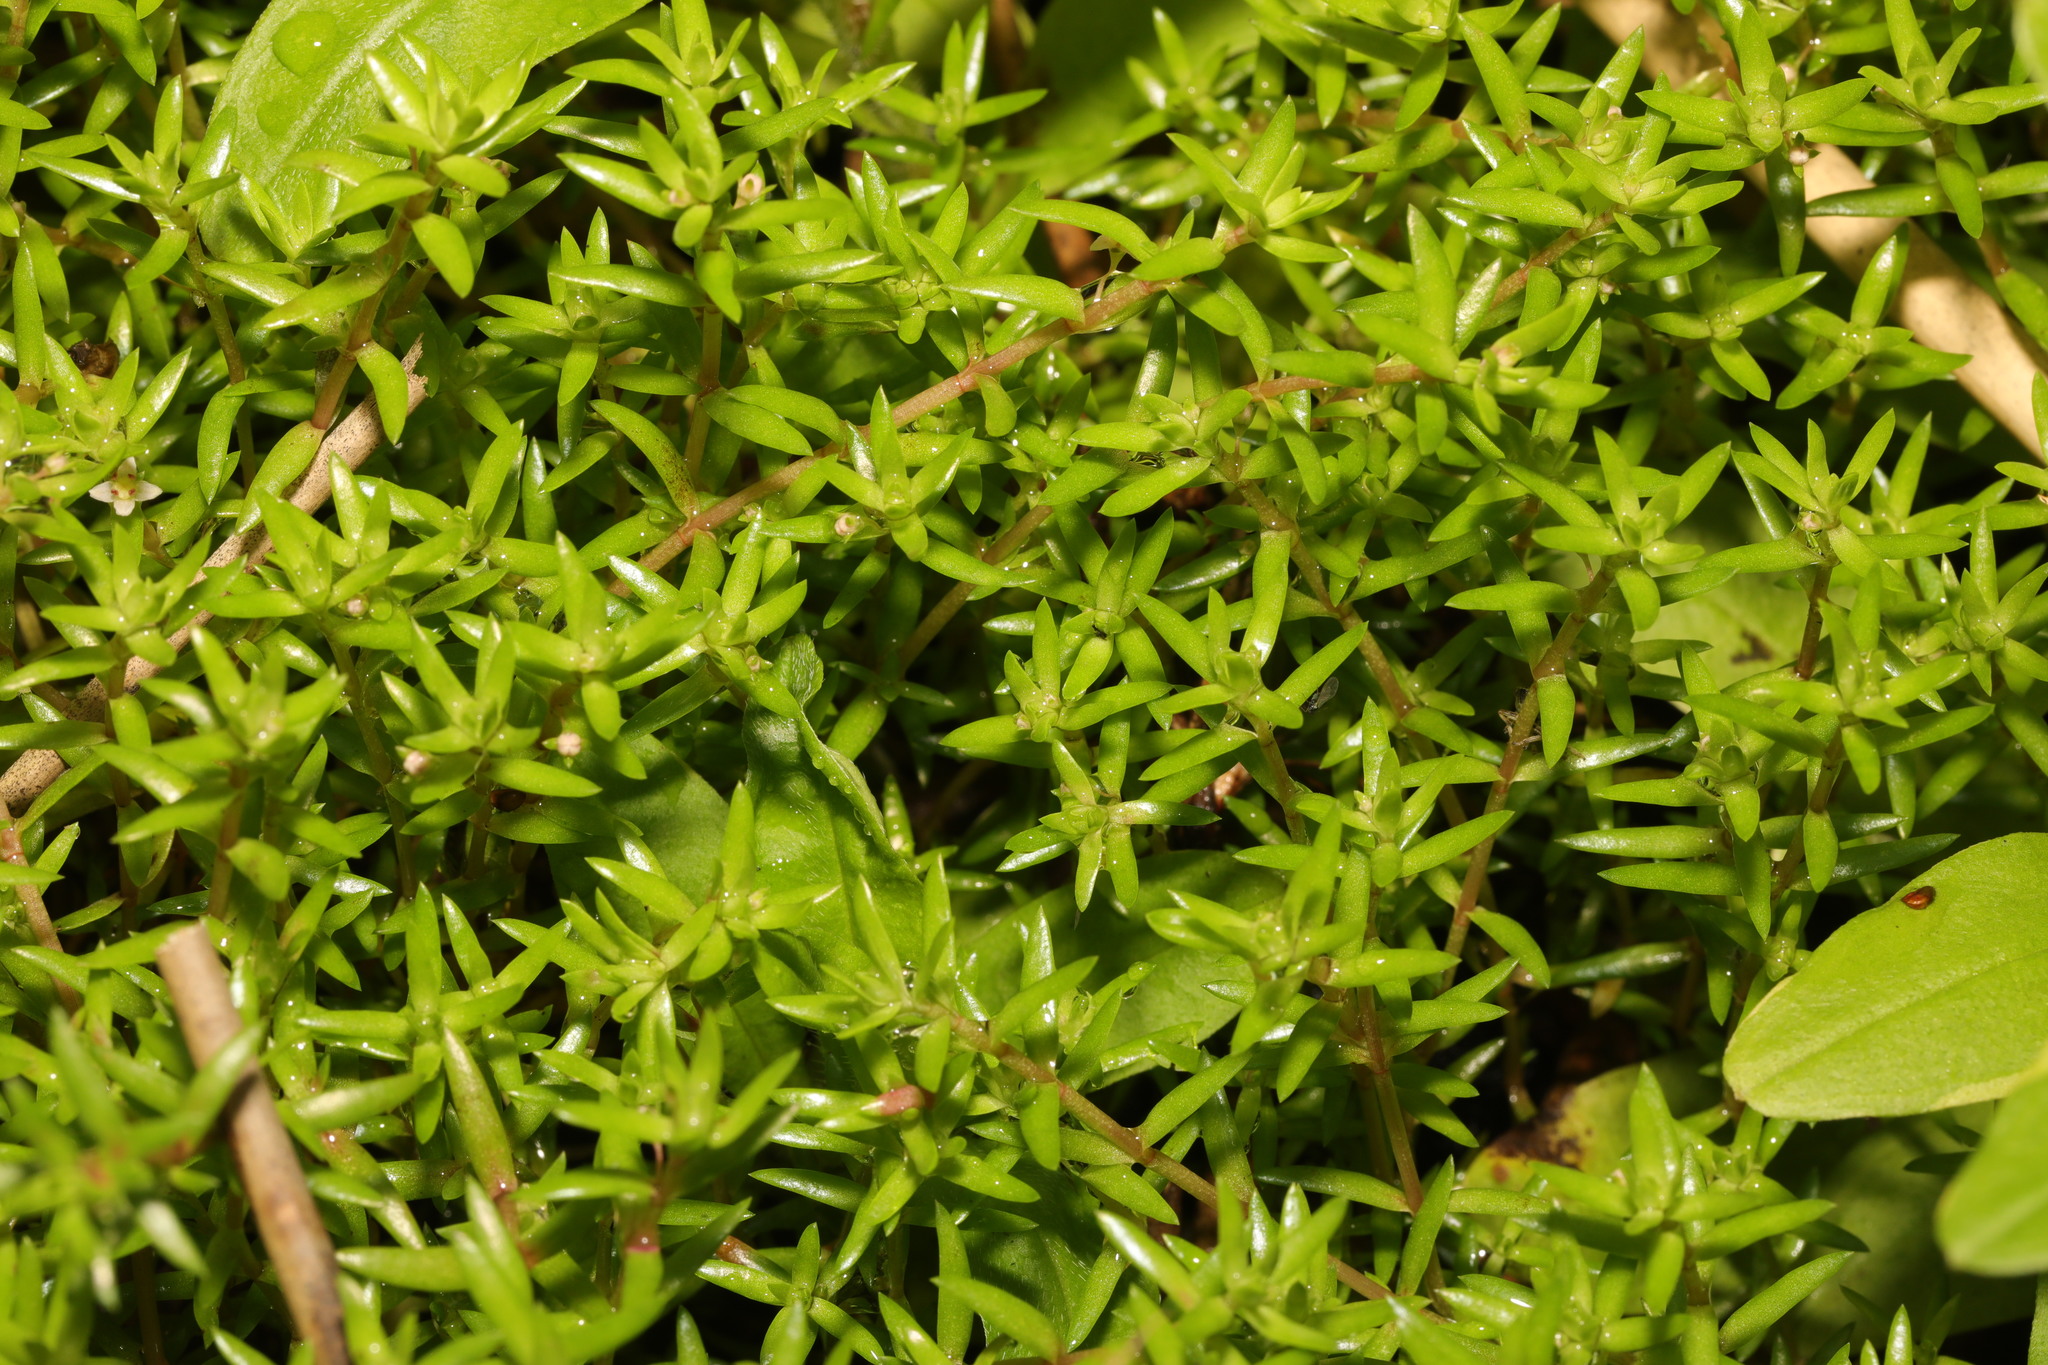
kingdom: Plantae
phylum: Tracheophyta
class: Magnoliopsida
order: Saxifragales
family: Crassulaceae
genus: Crassula
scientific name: Crassula helmsii
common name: New zealand pigmyweed
